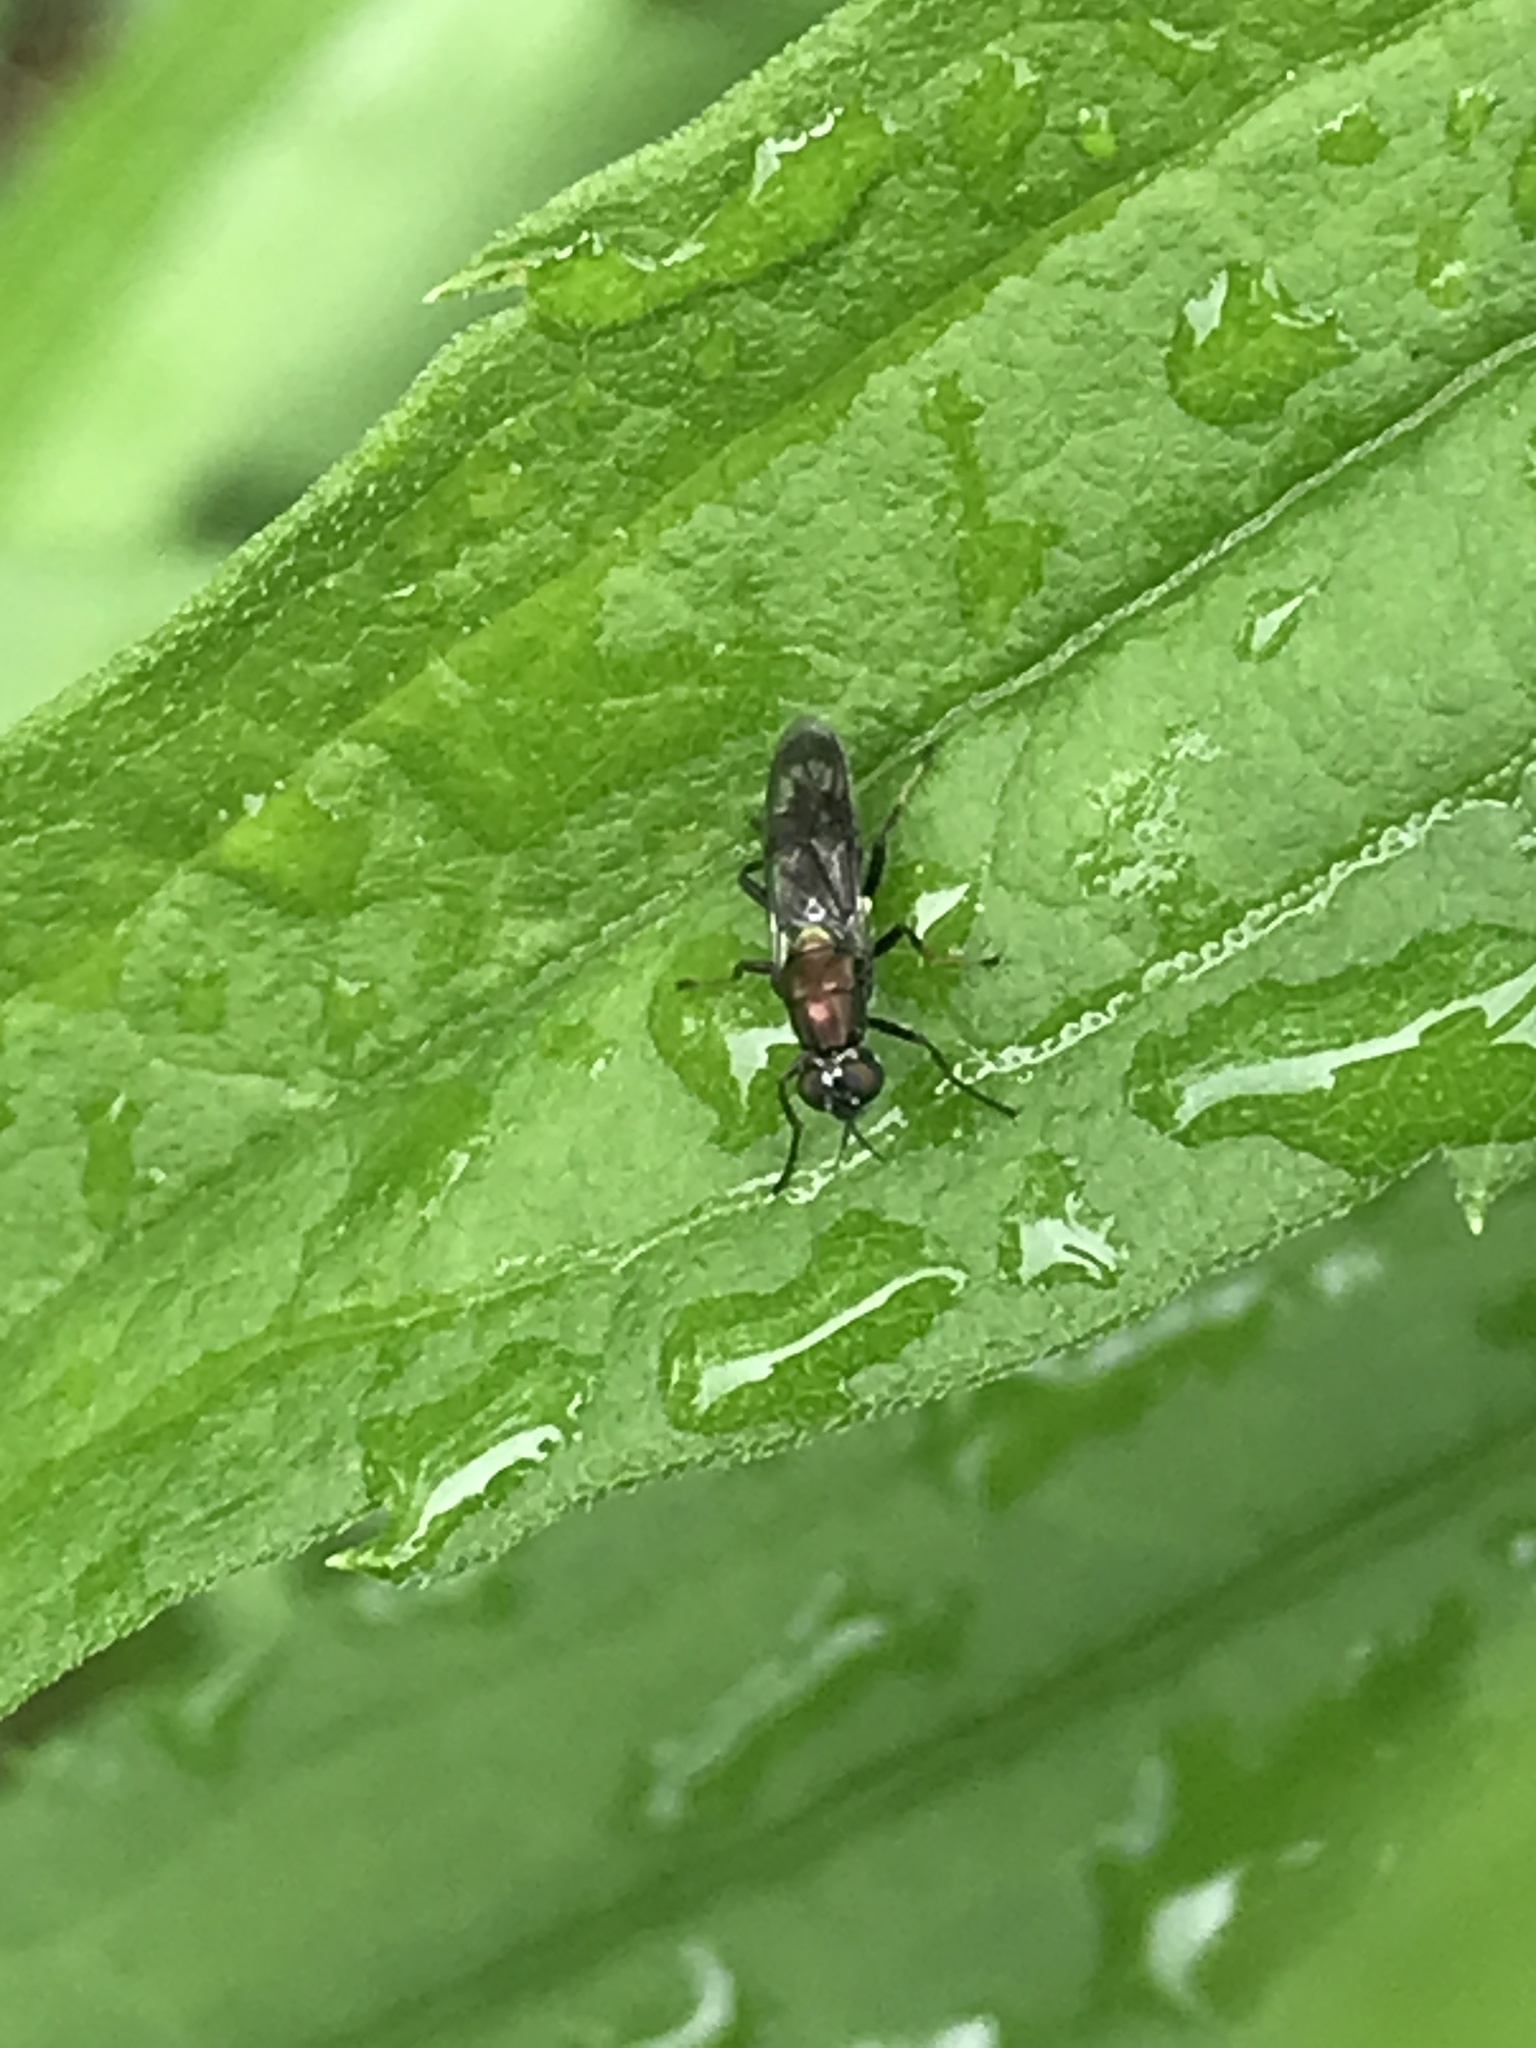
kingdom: Animalia
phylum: Arthropoda
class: Insecta
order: Diptera
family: Stratiomyidae
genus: Myxosargus
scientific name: Myxosargus nigricormis
